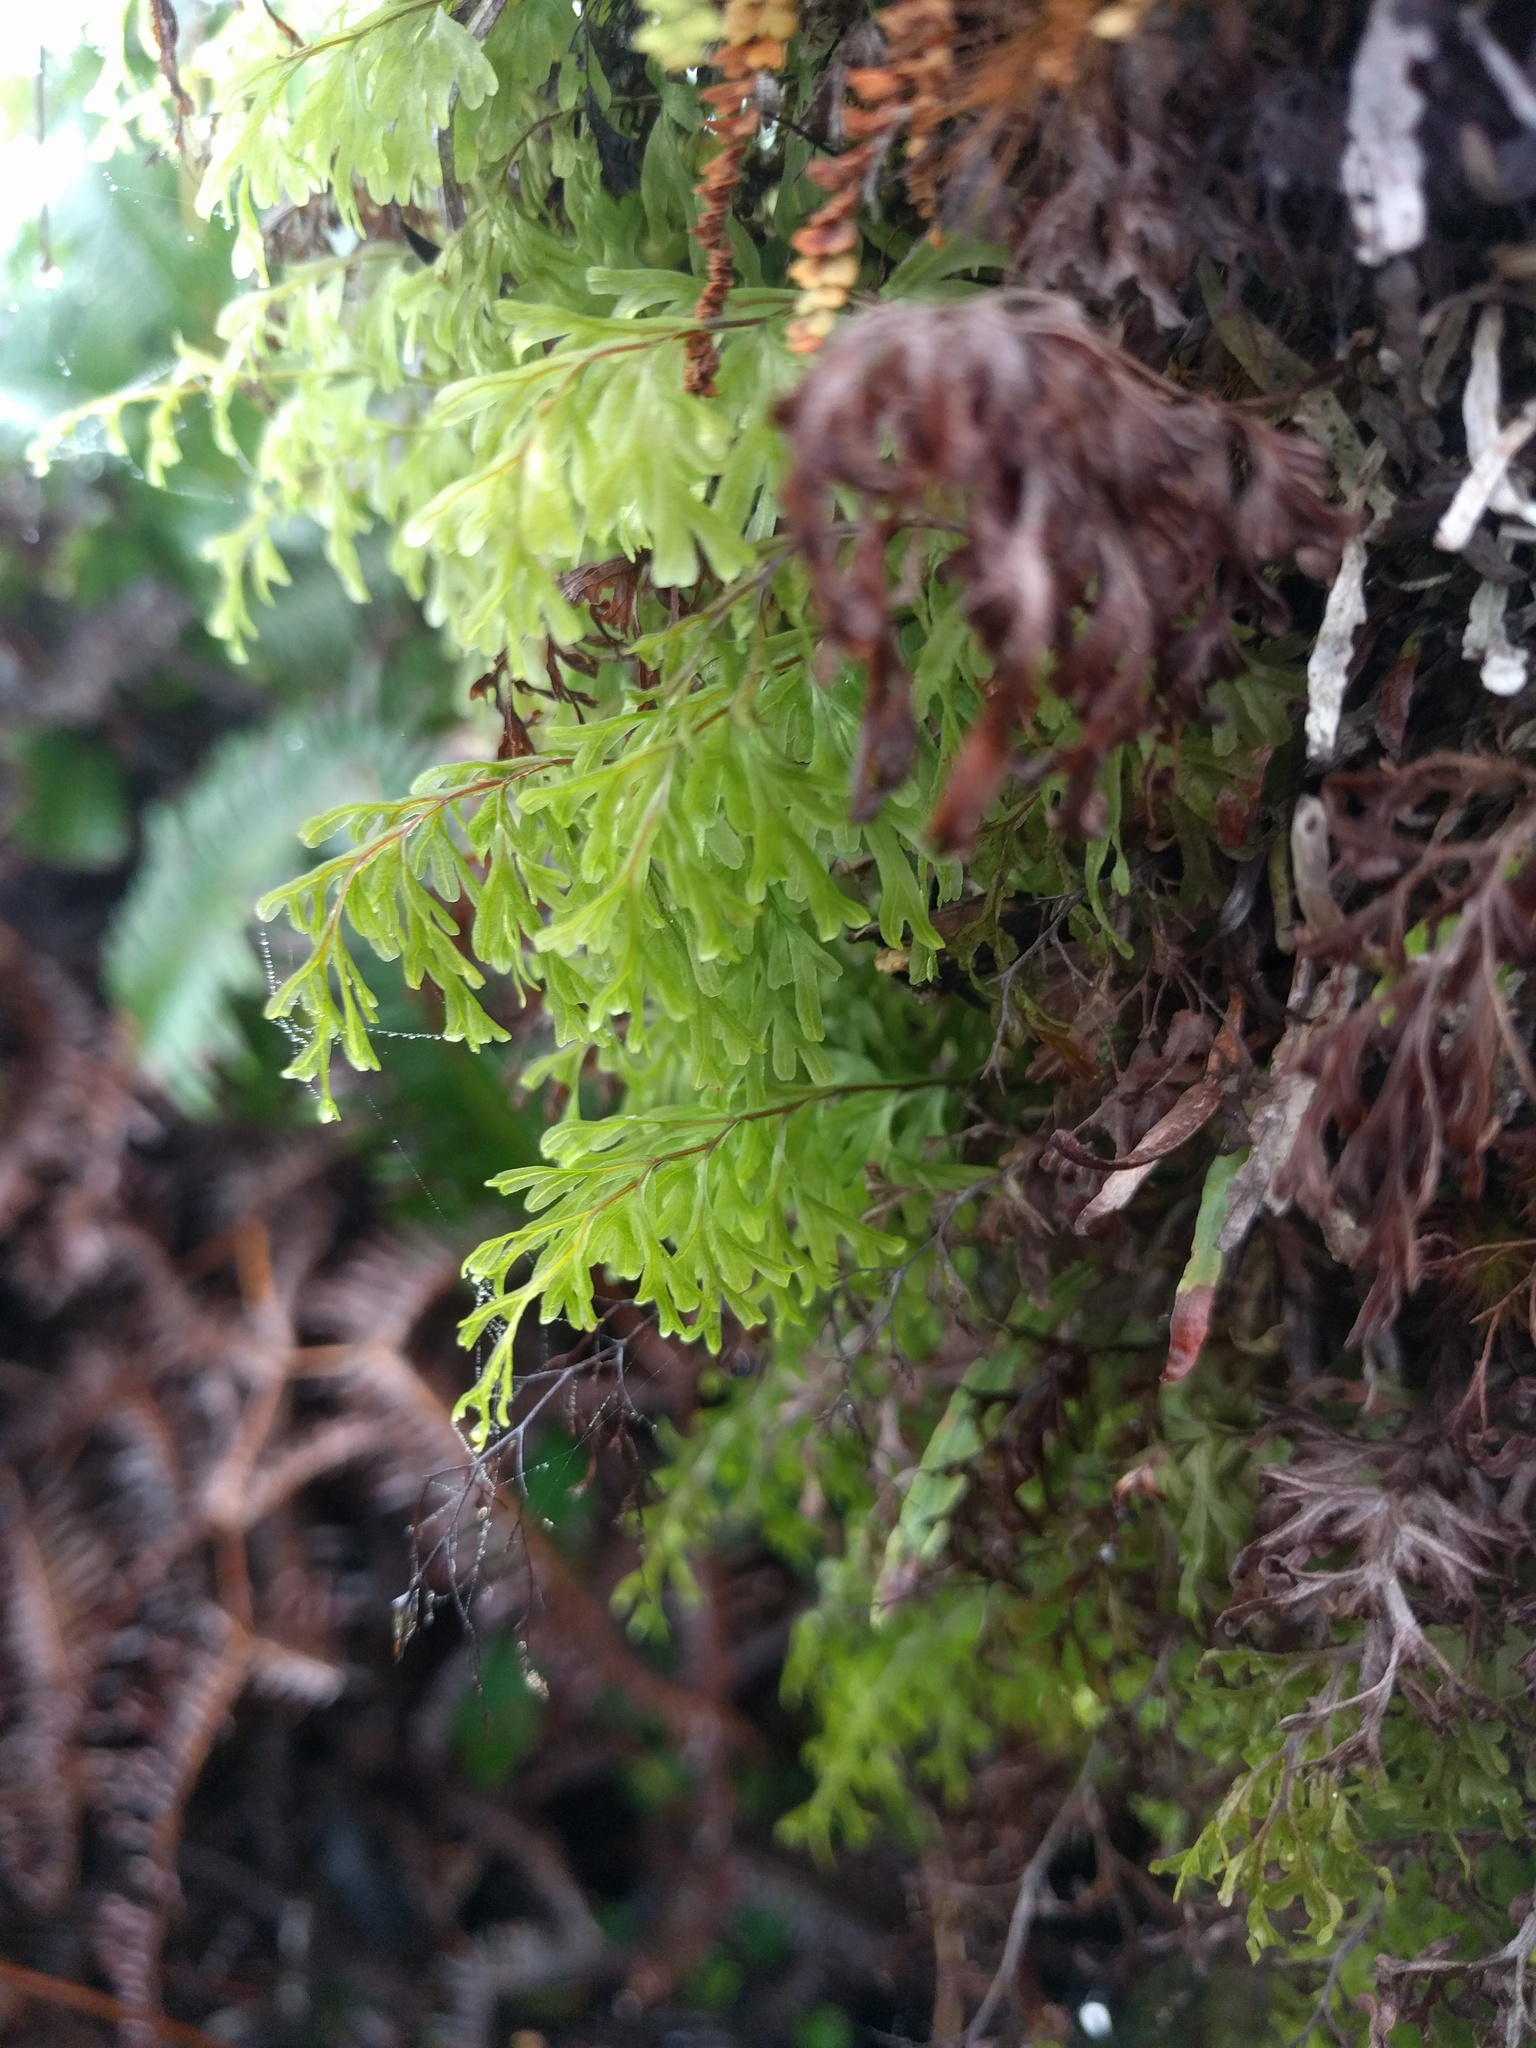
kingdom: Plantae
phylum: Tracheophyta
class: Polypodiopsida
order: Hymenophyllales
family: Hymenophyllaceae
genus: Hymenophyllum
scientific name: Hymenophyllum recurvum
